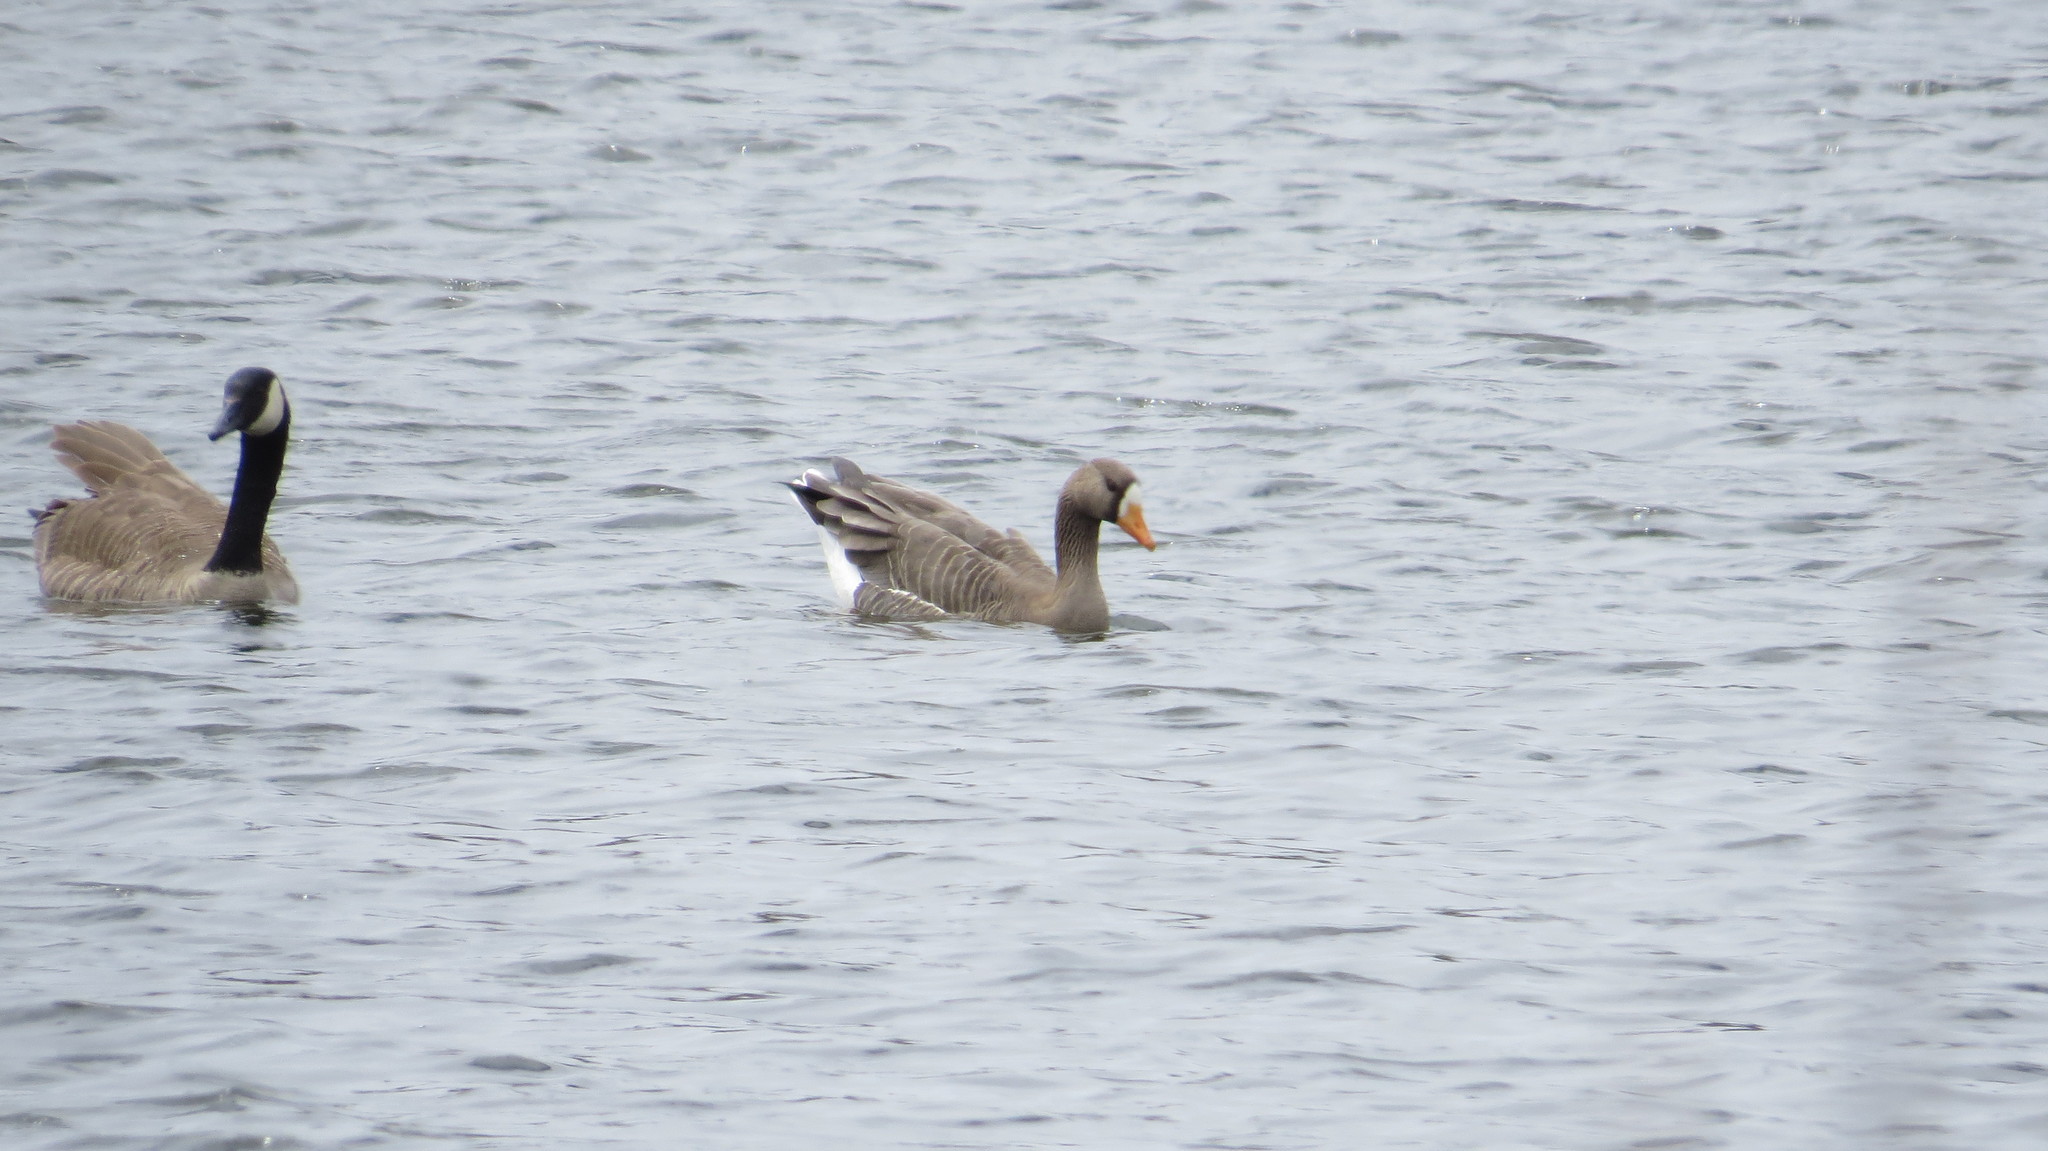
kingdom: Animalia
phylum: Chordata
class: Aves
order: Anseriformes
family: Anatidae
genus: Anser
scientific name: Anser albifrons
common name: Greater white-fronted goose
